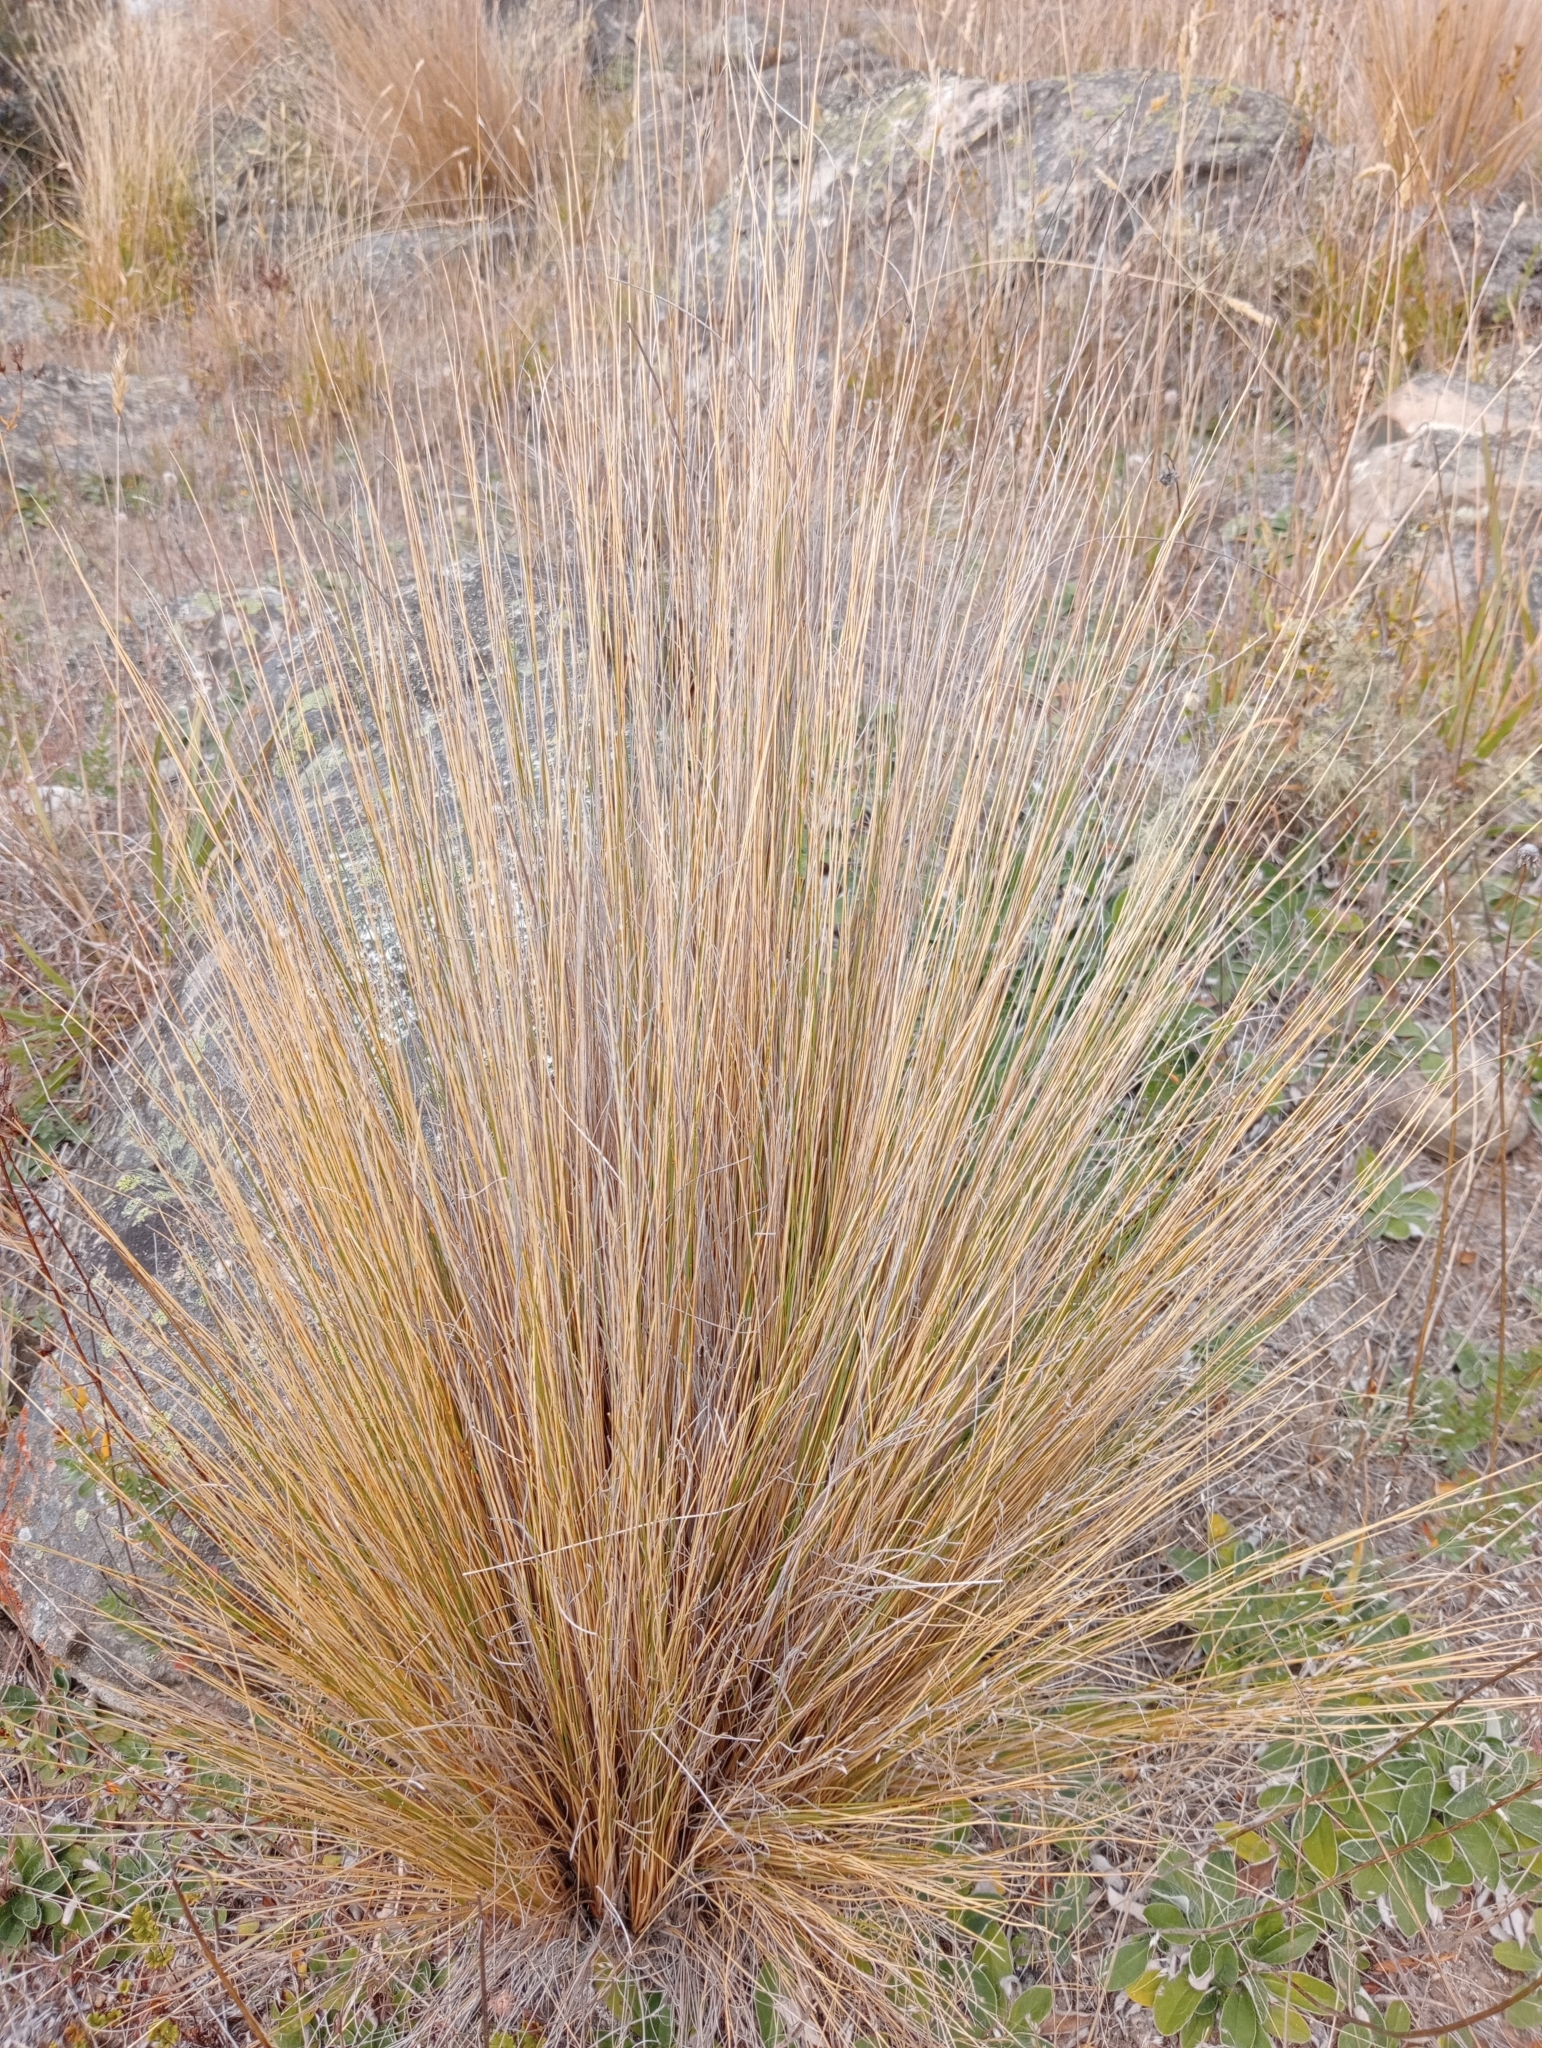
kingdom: Plantae
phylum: Tracheophyta
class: Liliopsida
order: Poales
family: Poaceae
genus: Festuca
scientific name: Festuca novae-zelandiae
